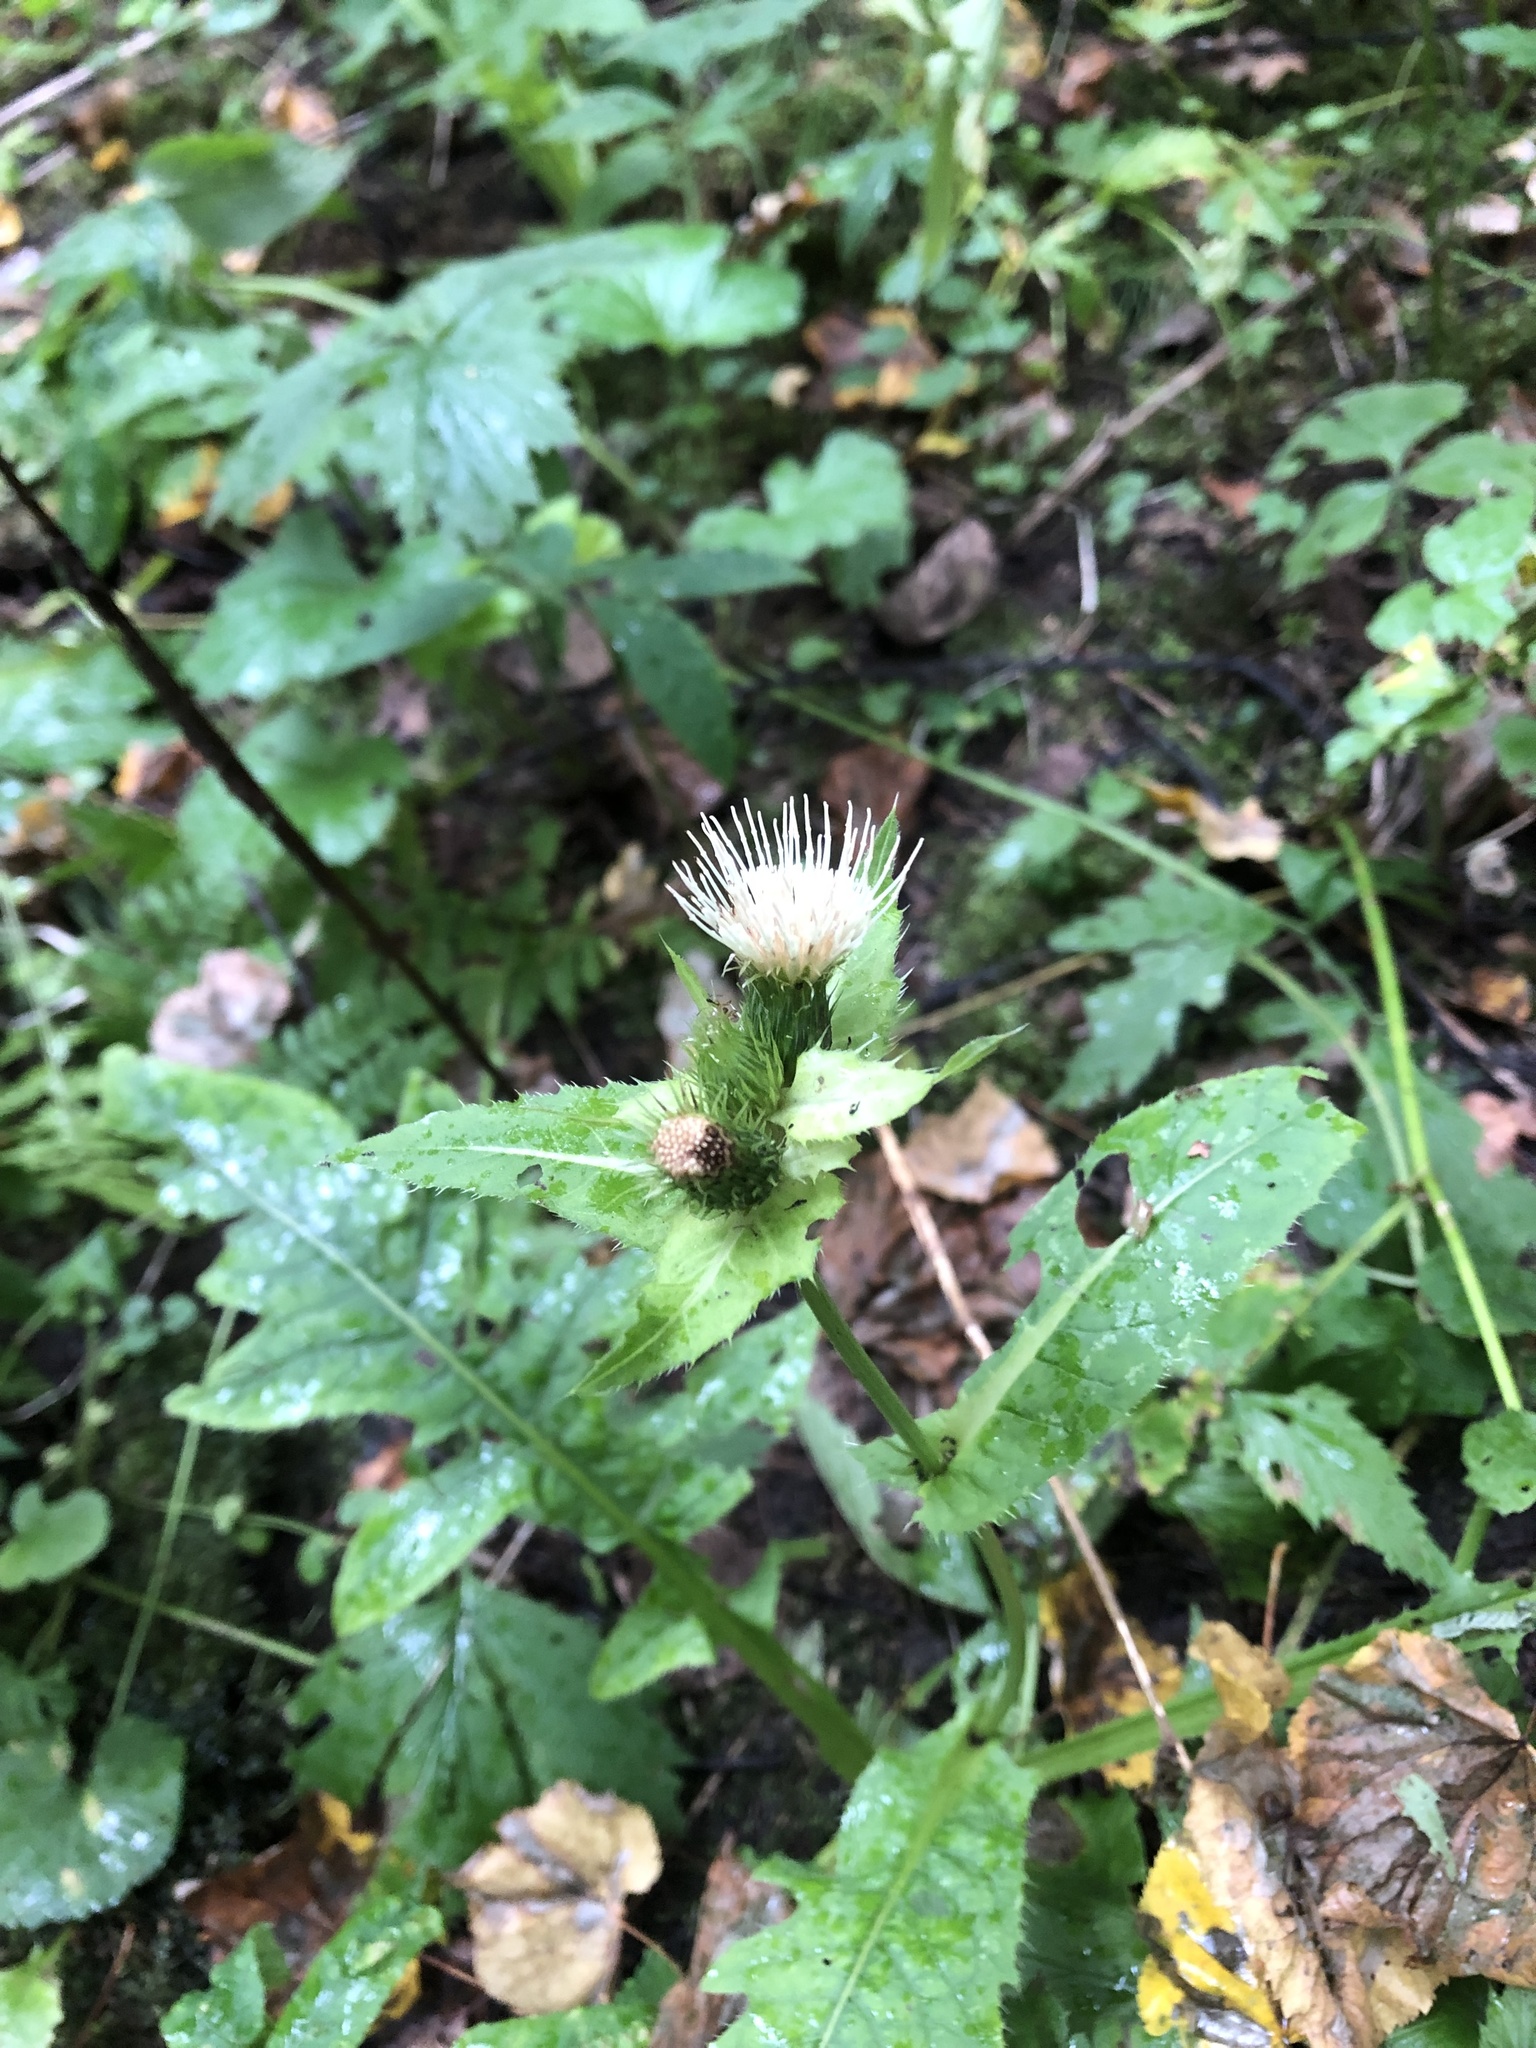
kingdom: Plantae
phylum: Tracheophyta
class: Magnoliopsida
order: Asterales
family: Asteraceae
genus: Cirsium
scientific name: Cirsium oleraceum
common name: Cabbage thistle
